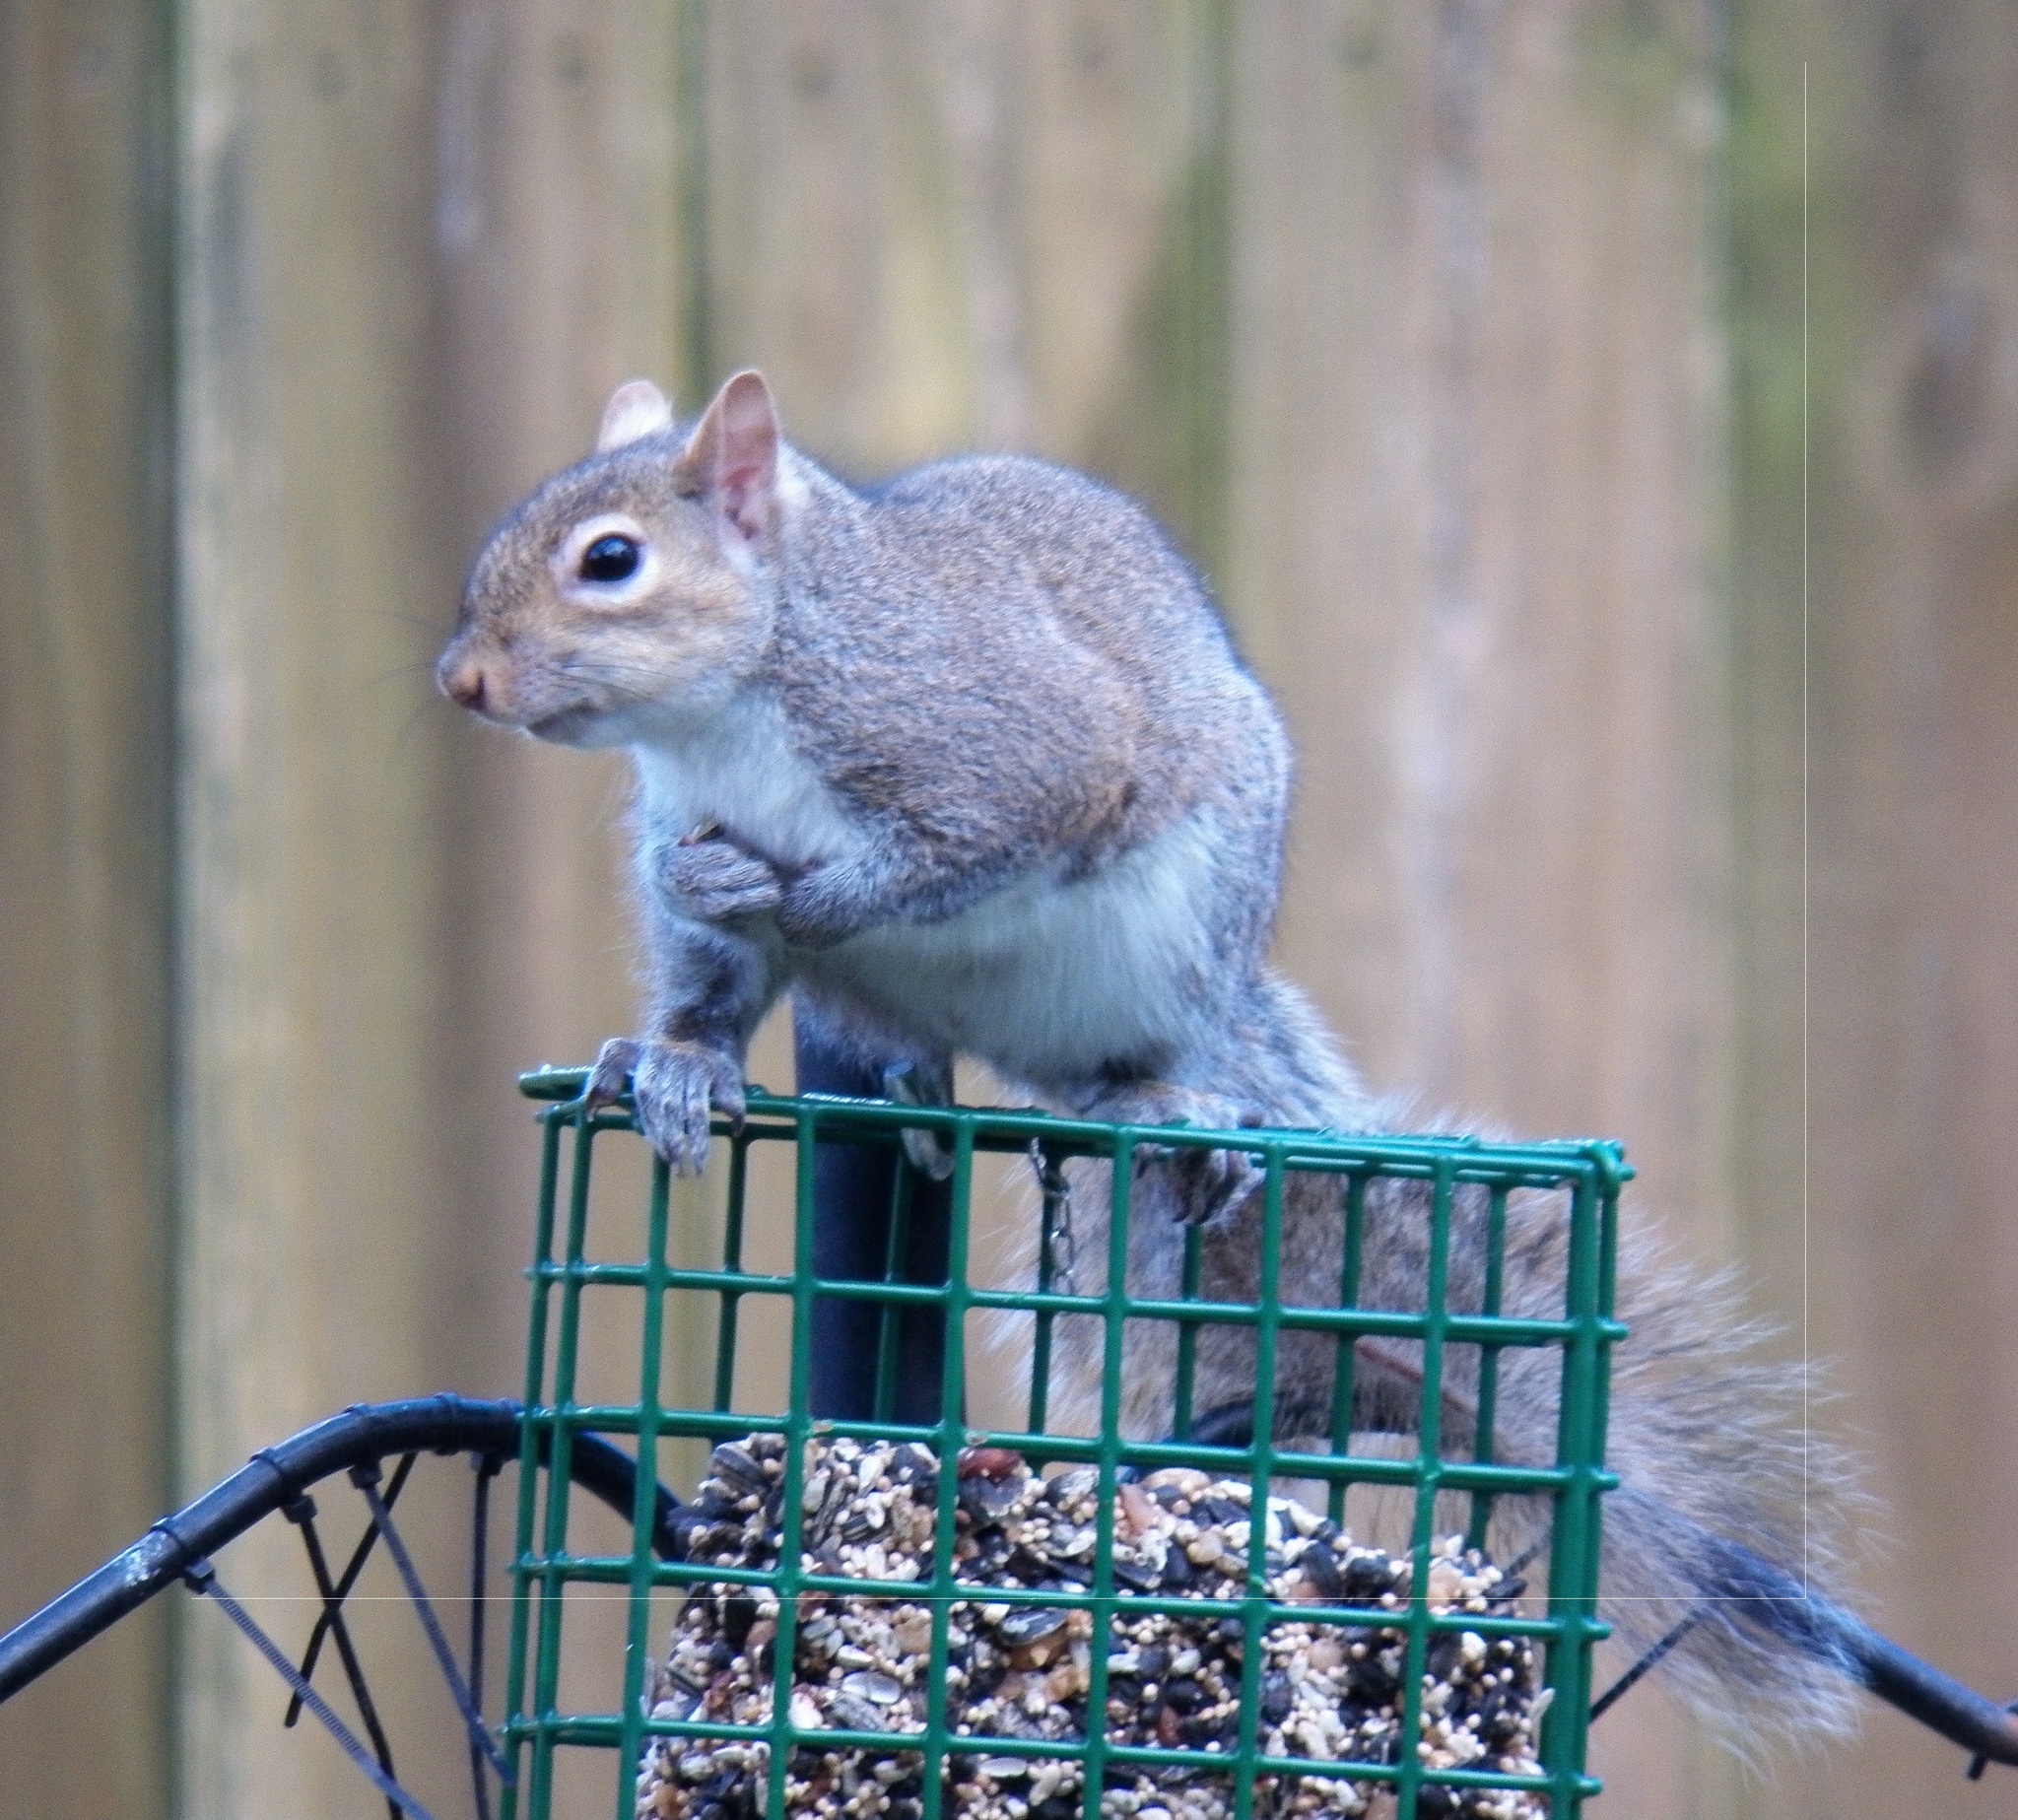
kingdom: Animalia
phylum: Chordata
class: Mammalia
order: Rodentia
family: Sciuridae
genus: Sciurus
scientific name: Sciurus carolinensis
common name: Eastern gray squirrel
